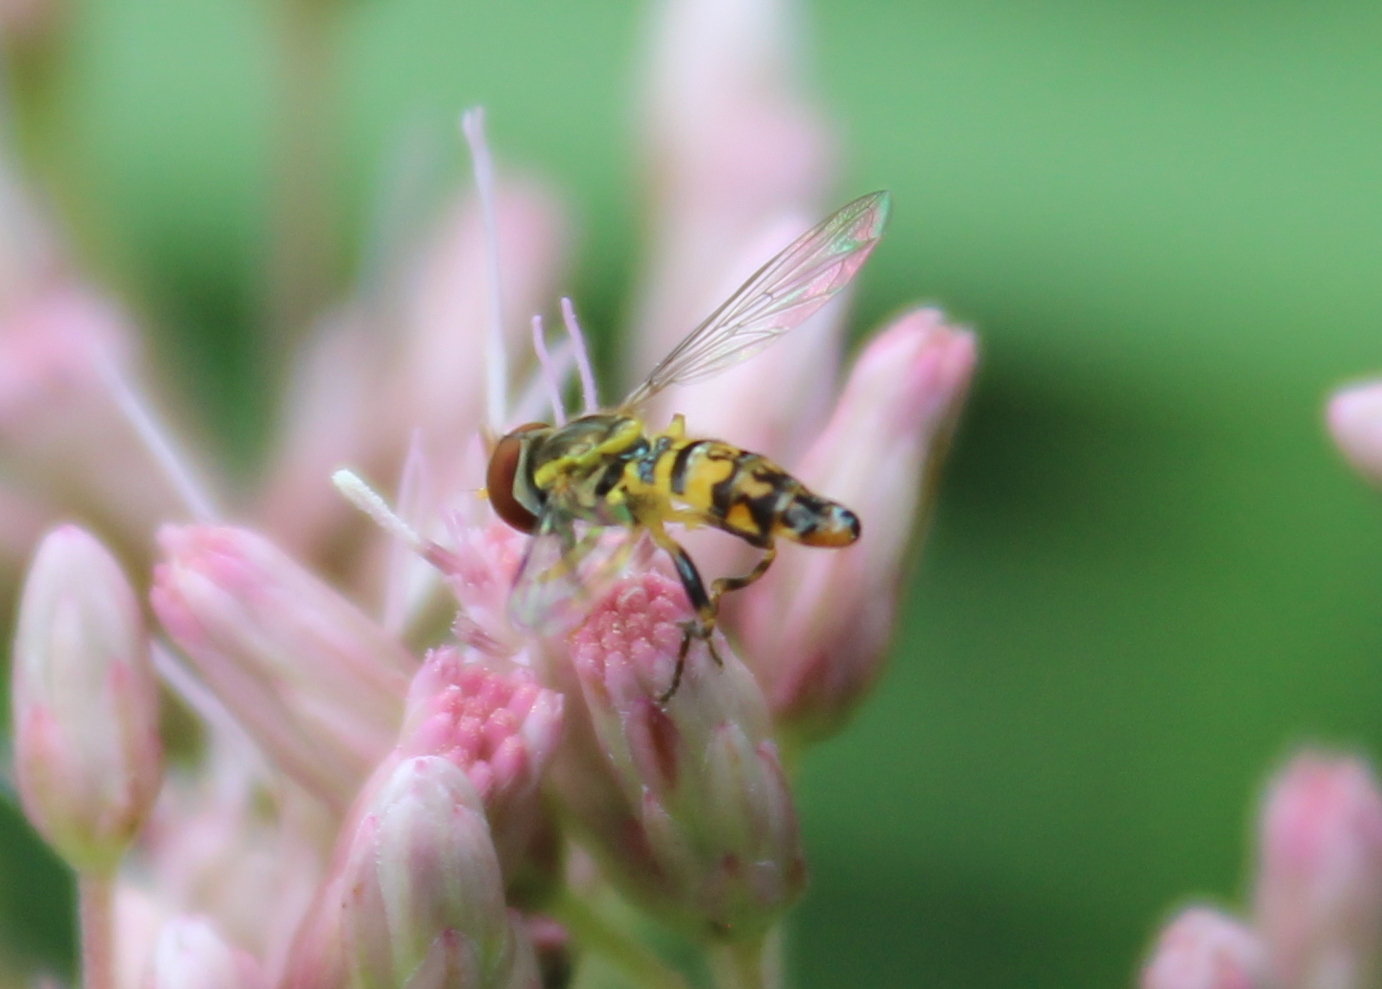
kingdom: Animalia
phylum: Arthropoda
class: Insecta
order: Diptera
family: Syrphidae
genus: Toxomerus
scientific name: Toxomerus geminatus
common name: Eastern calligrapher
